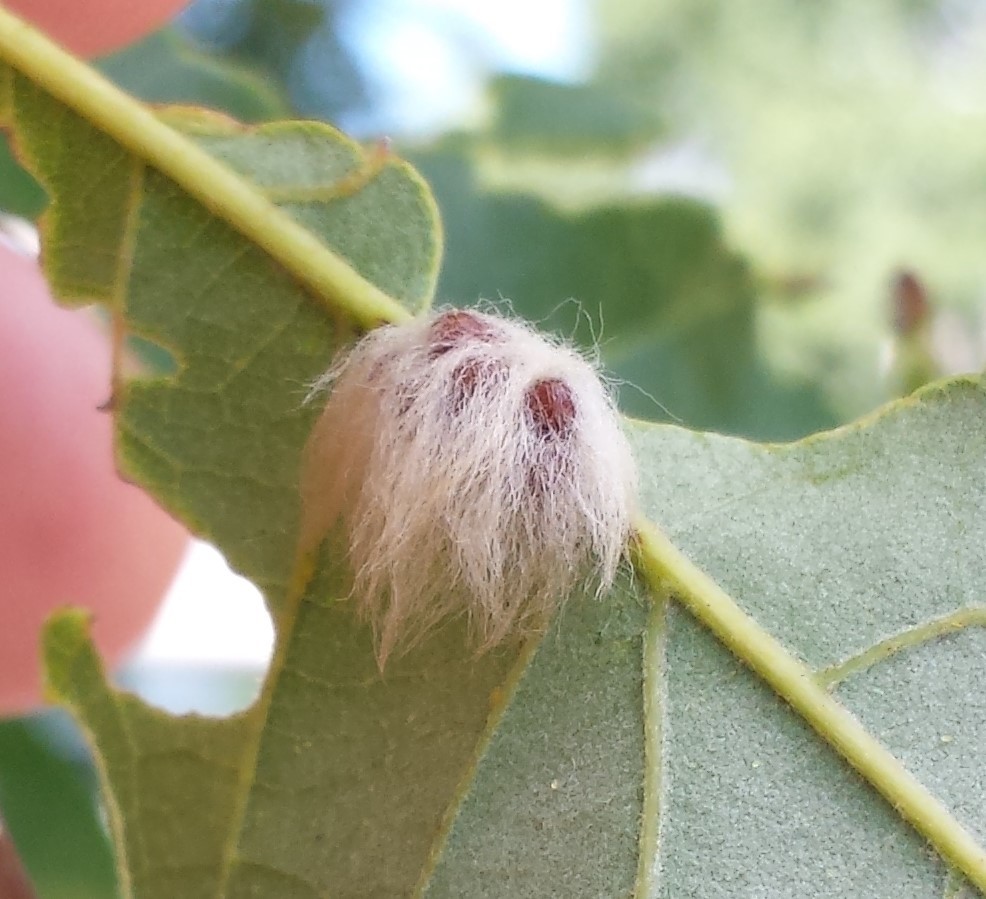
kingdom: Animalia
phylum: Arthropoda
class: Insecta
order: Hymenoptera
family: Cynipidae
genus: Andricus
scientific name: Andricus Druon ignotum
